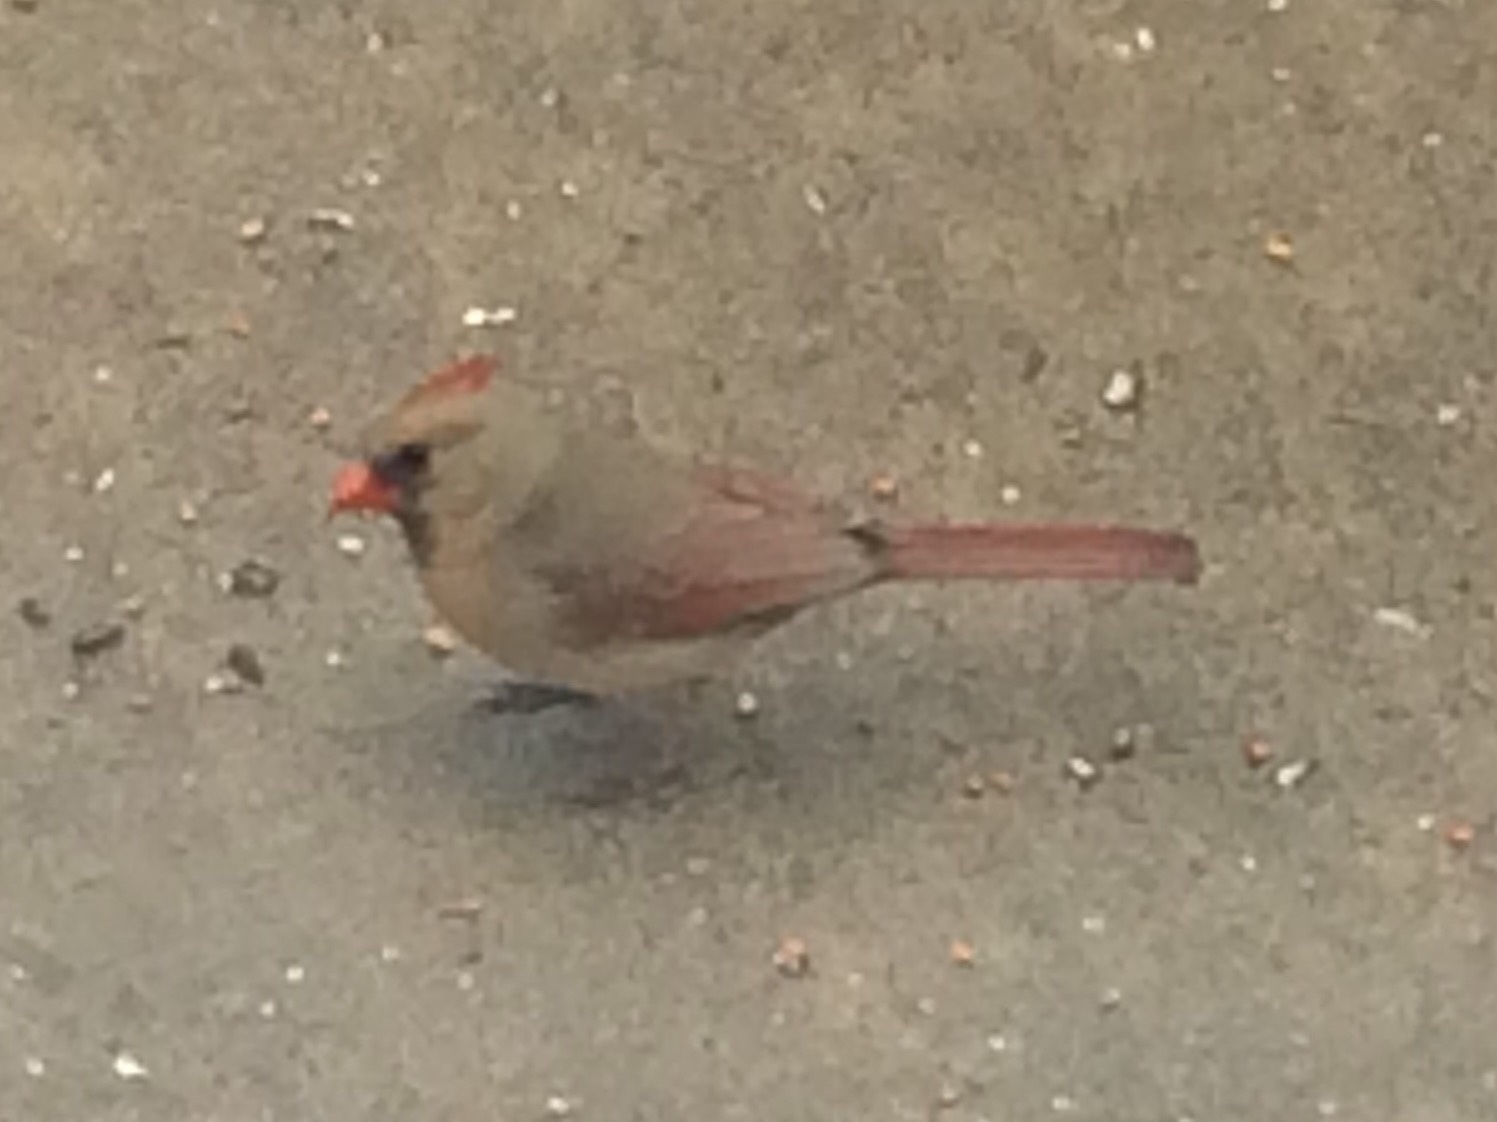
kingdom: Animalia
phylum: Chordata
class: Aves
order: Passeriformes
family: Cardinalidae
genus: Cardinalis
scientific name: Cardinalis cardinalis
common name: Northern cardinal
